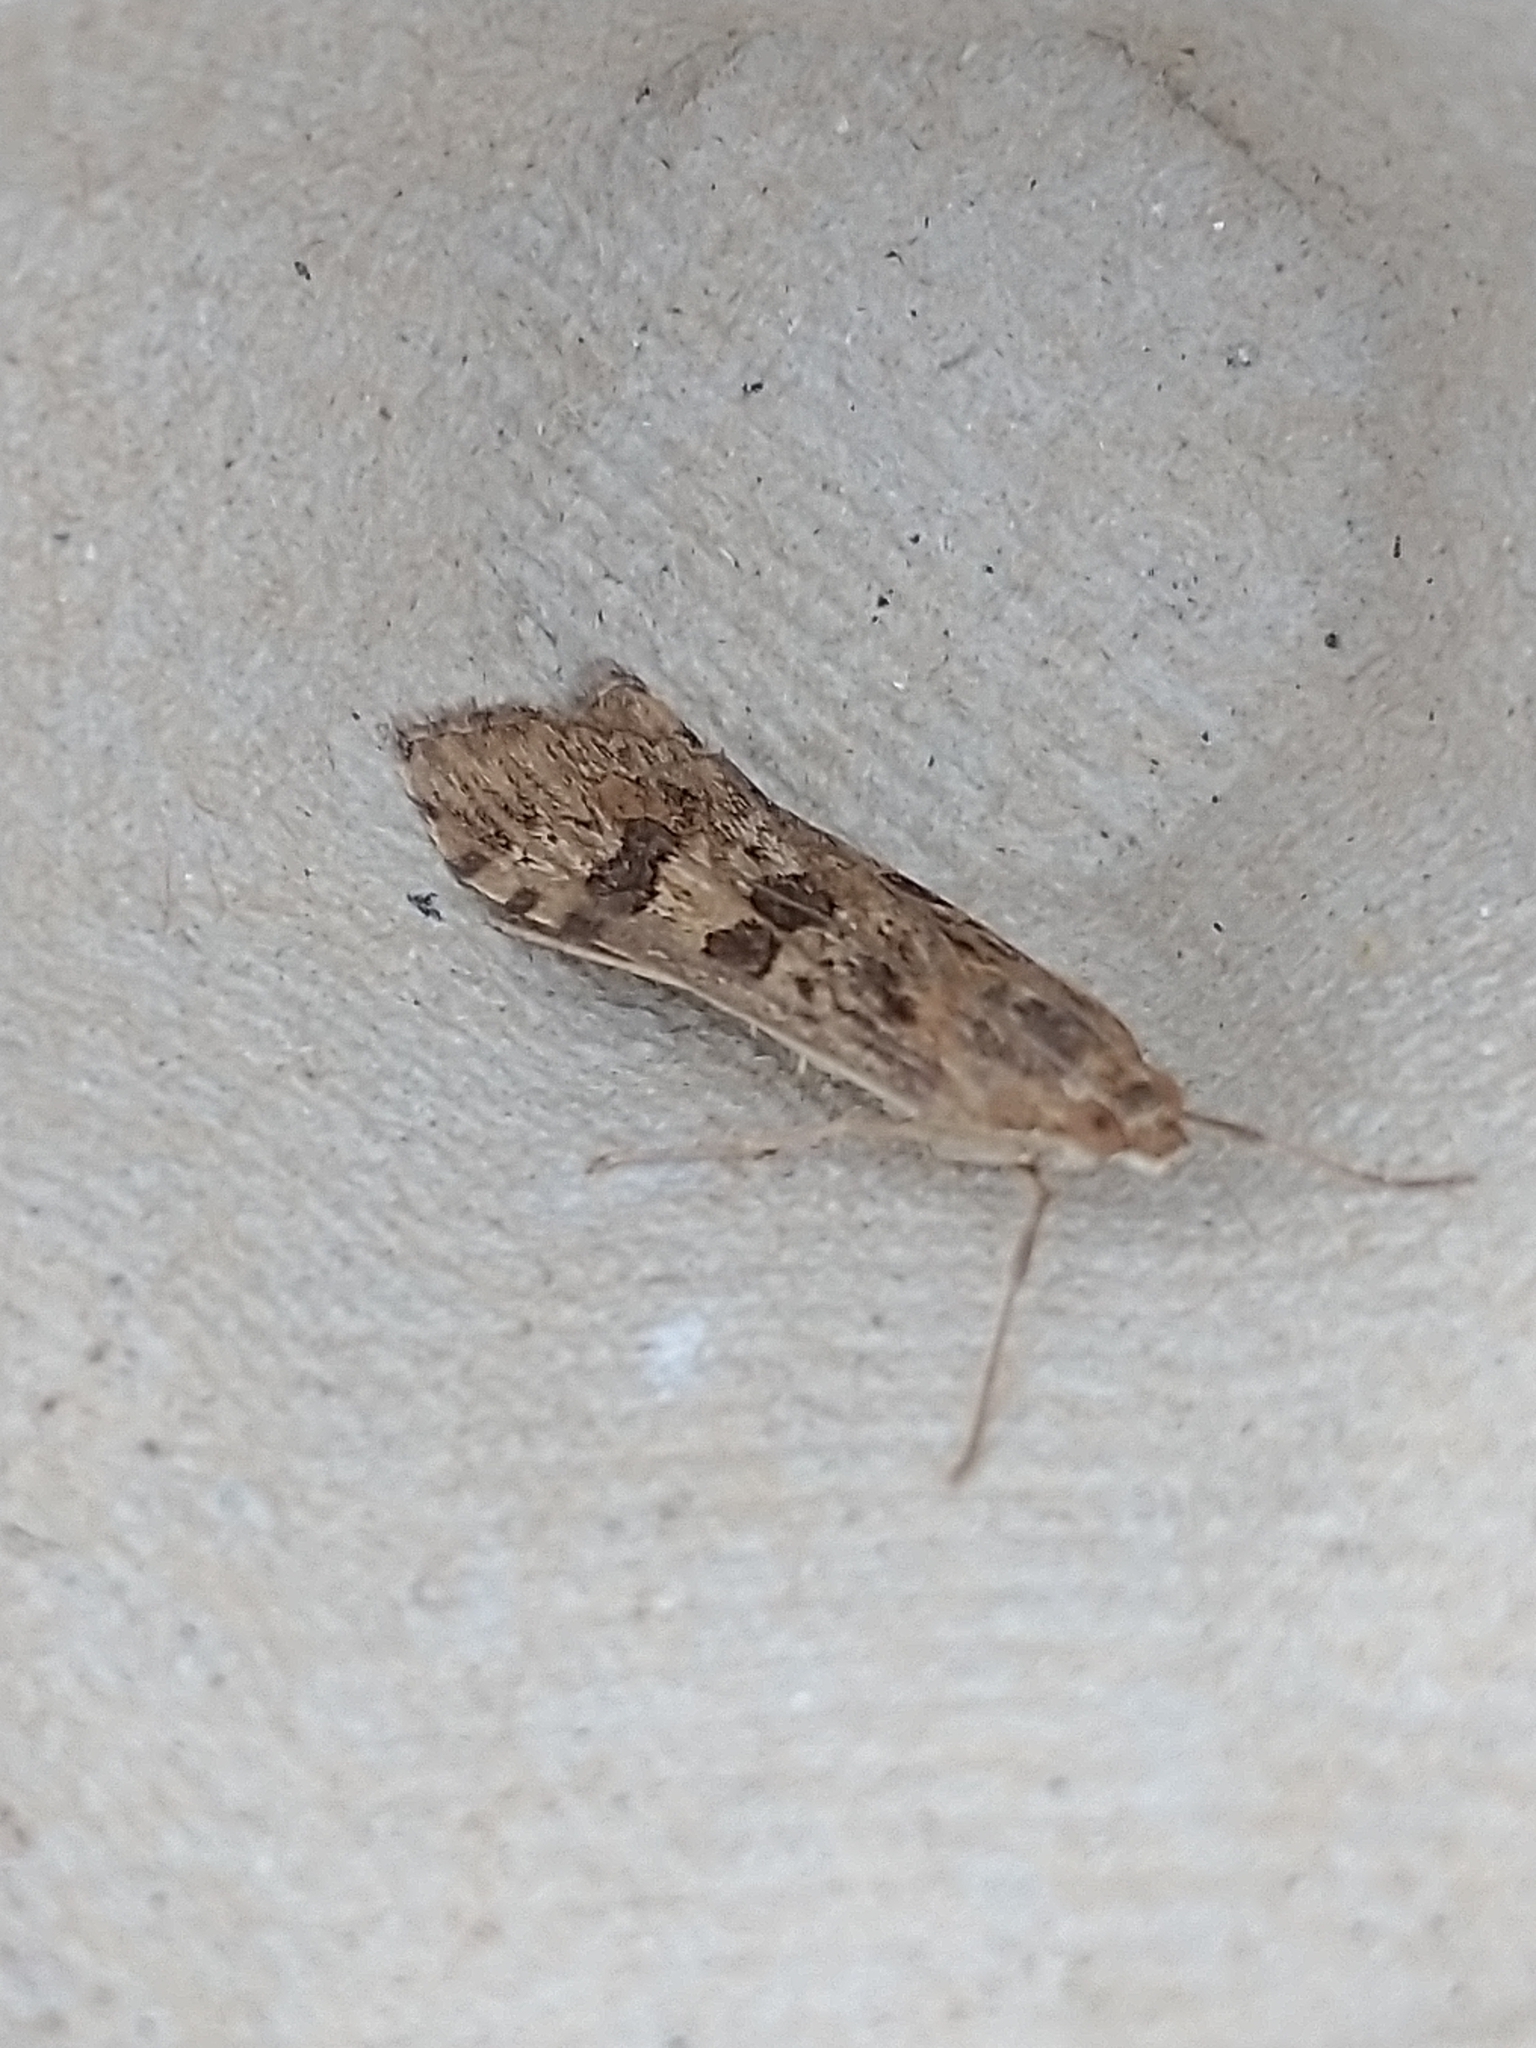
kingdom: Animalia
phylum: Arthropoda
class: Insecta
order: Lepidoptera
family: Crambidae
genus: Nomophila
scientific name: Nomophila noctuella
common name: Rush veneer
